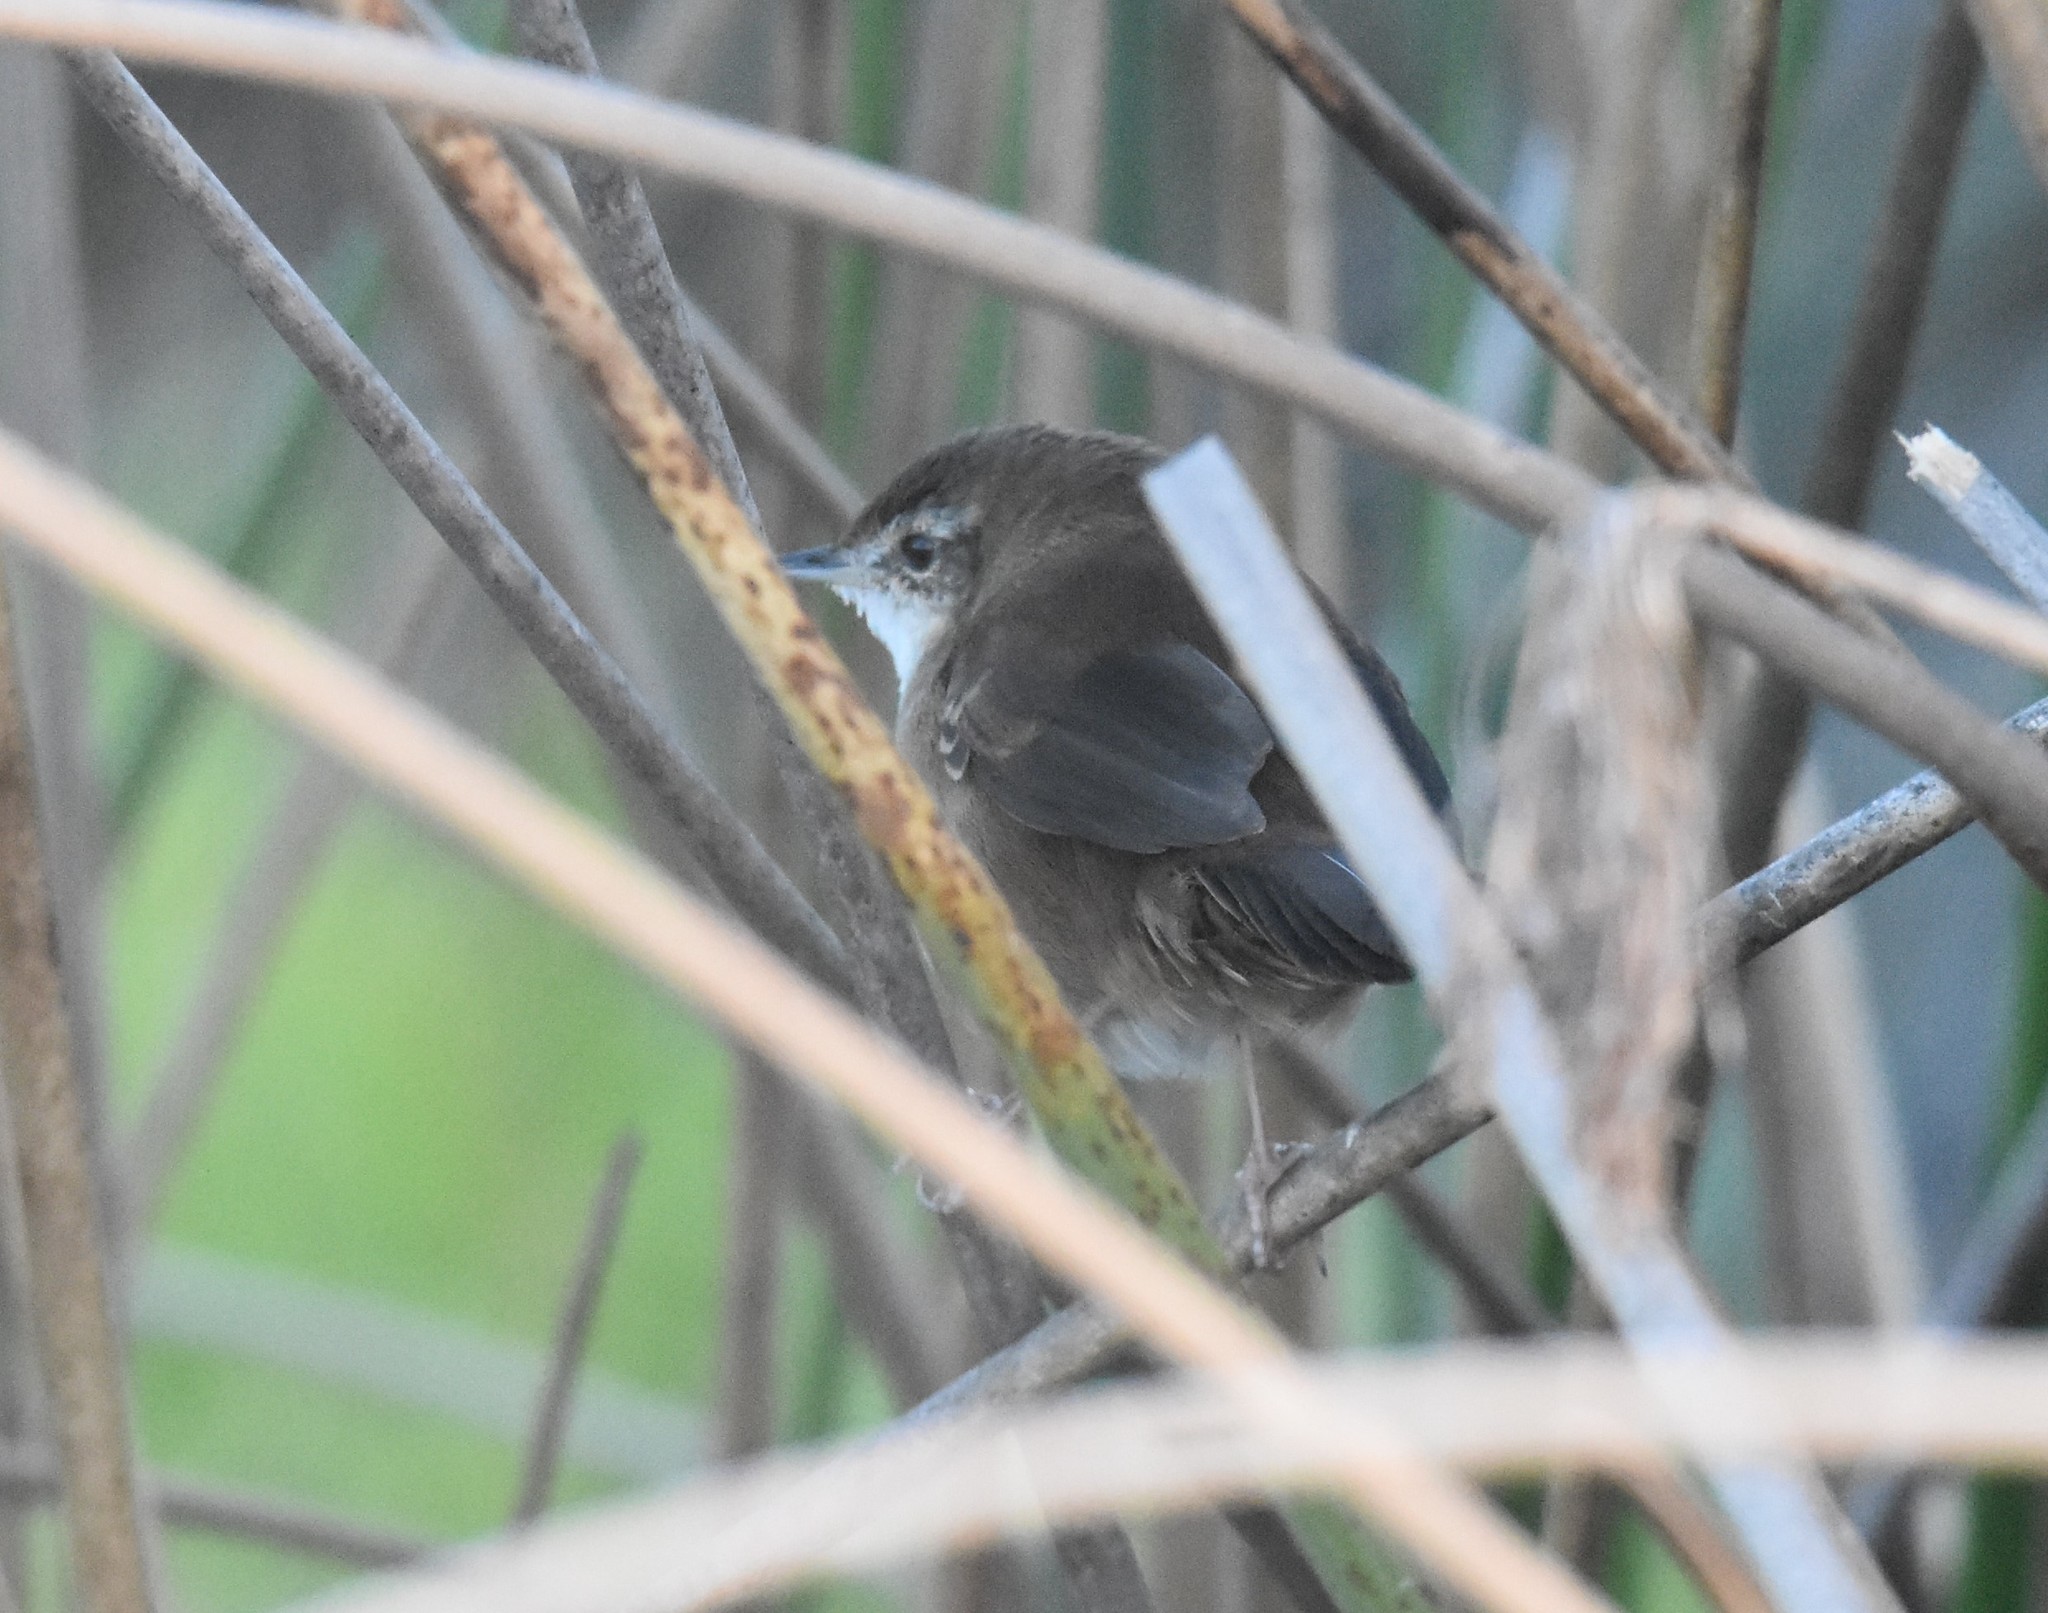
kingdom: Animalia
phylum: Chordata
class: Aves
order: Passeriformes
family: Locustellidae
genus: Bradypterus
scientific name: Bradypterus baboecala
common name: Little rush warbler
